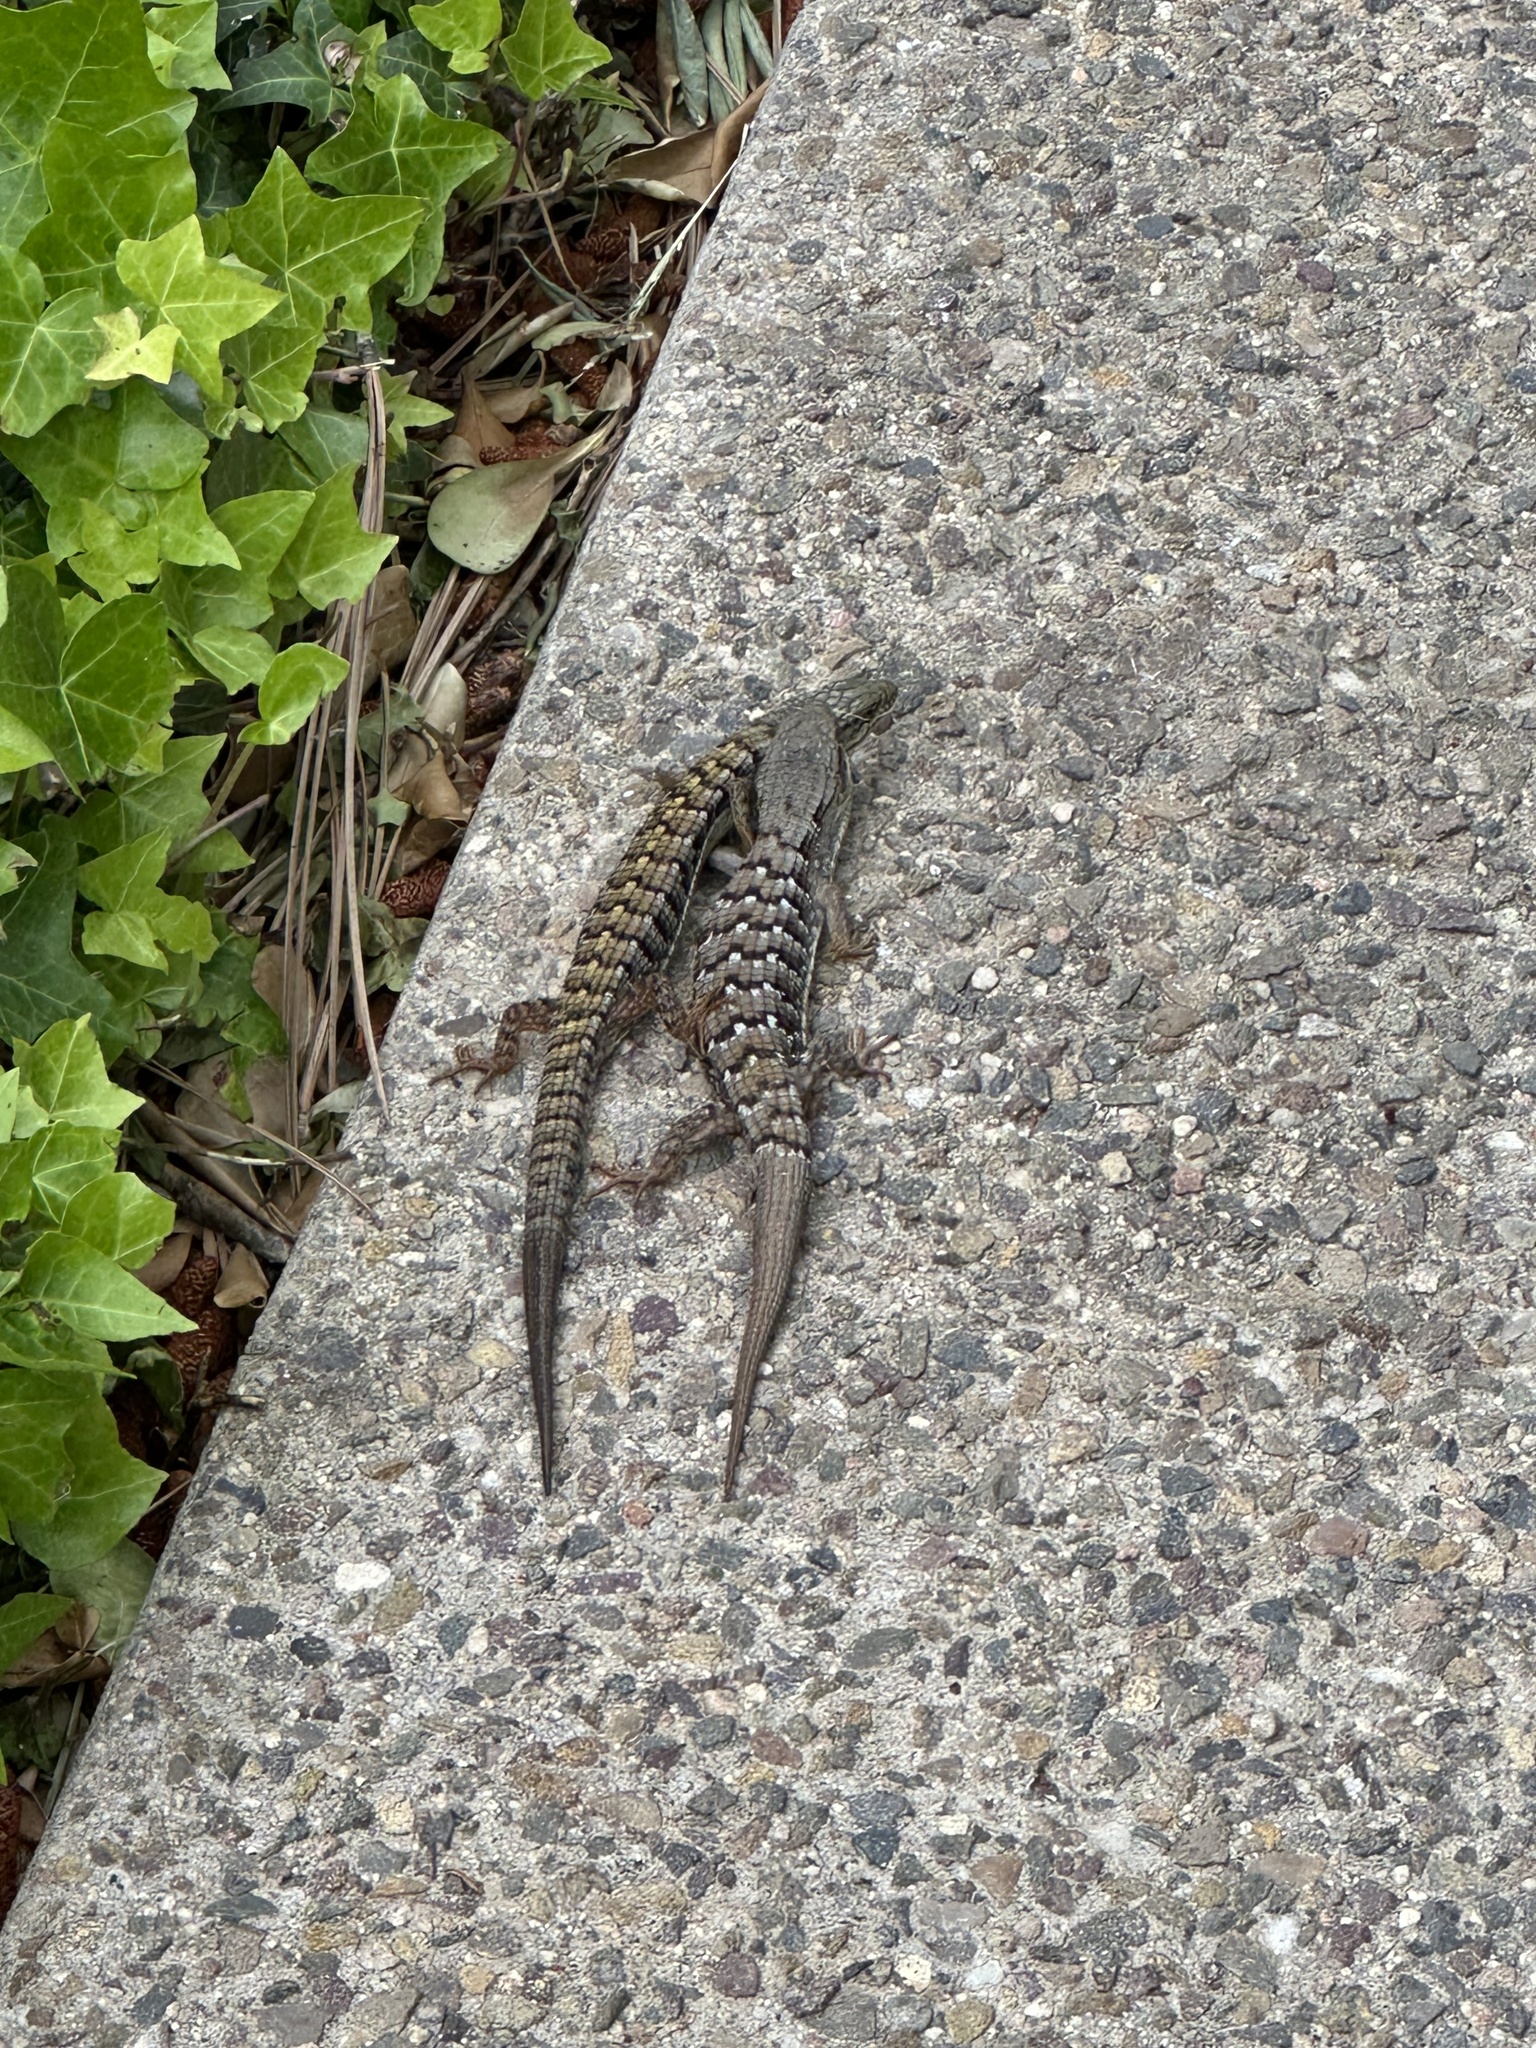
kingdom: Animalia
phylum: Chordata
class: Squamata
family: Anguidae
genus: Elgaria
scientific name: Elgaria multicarinata
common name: Southern alligator lizard
